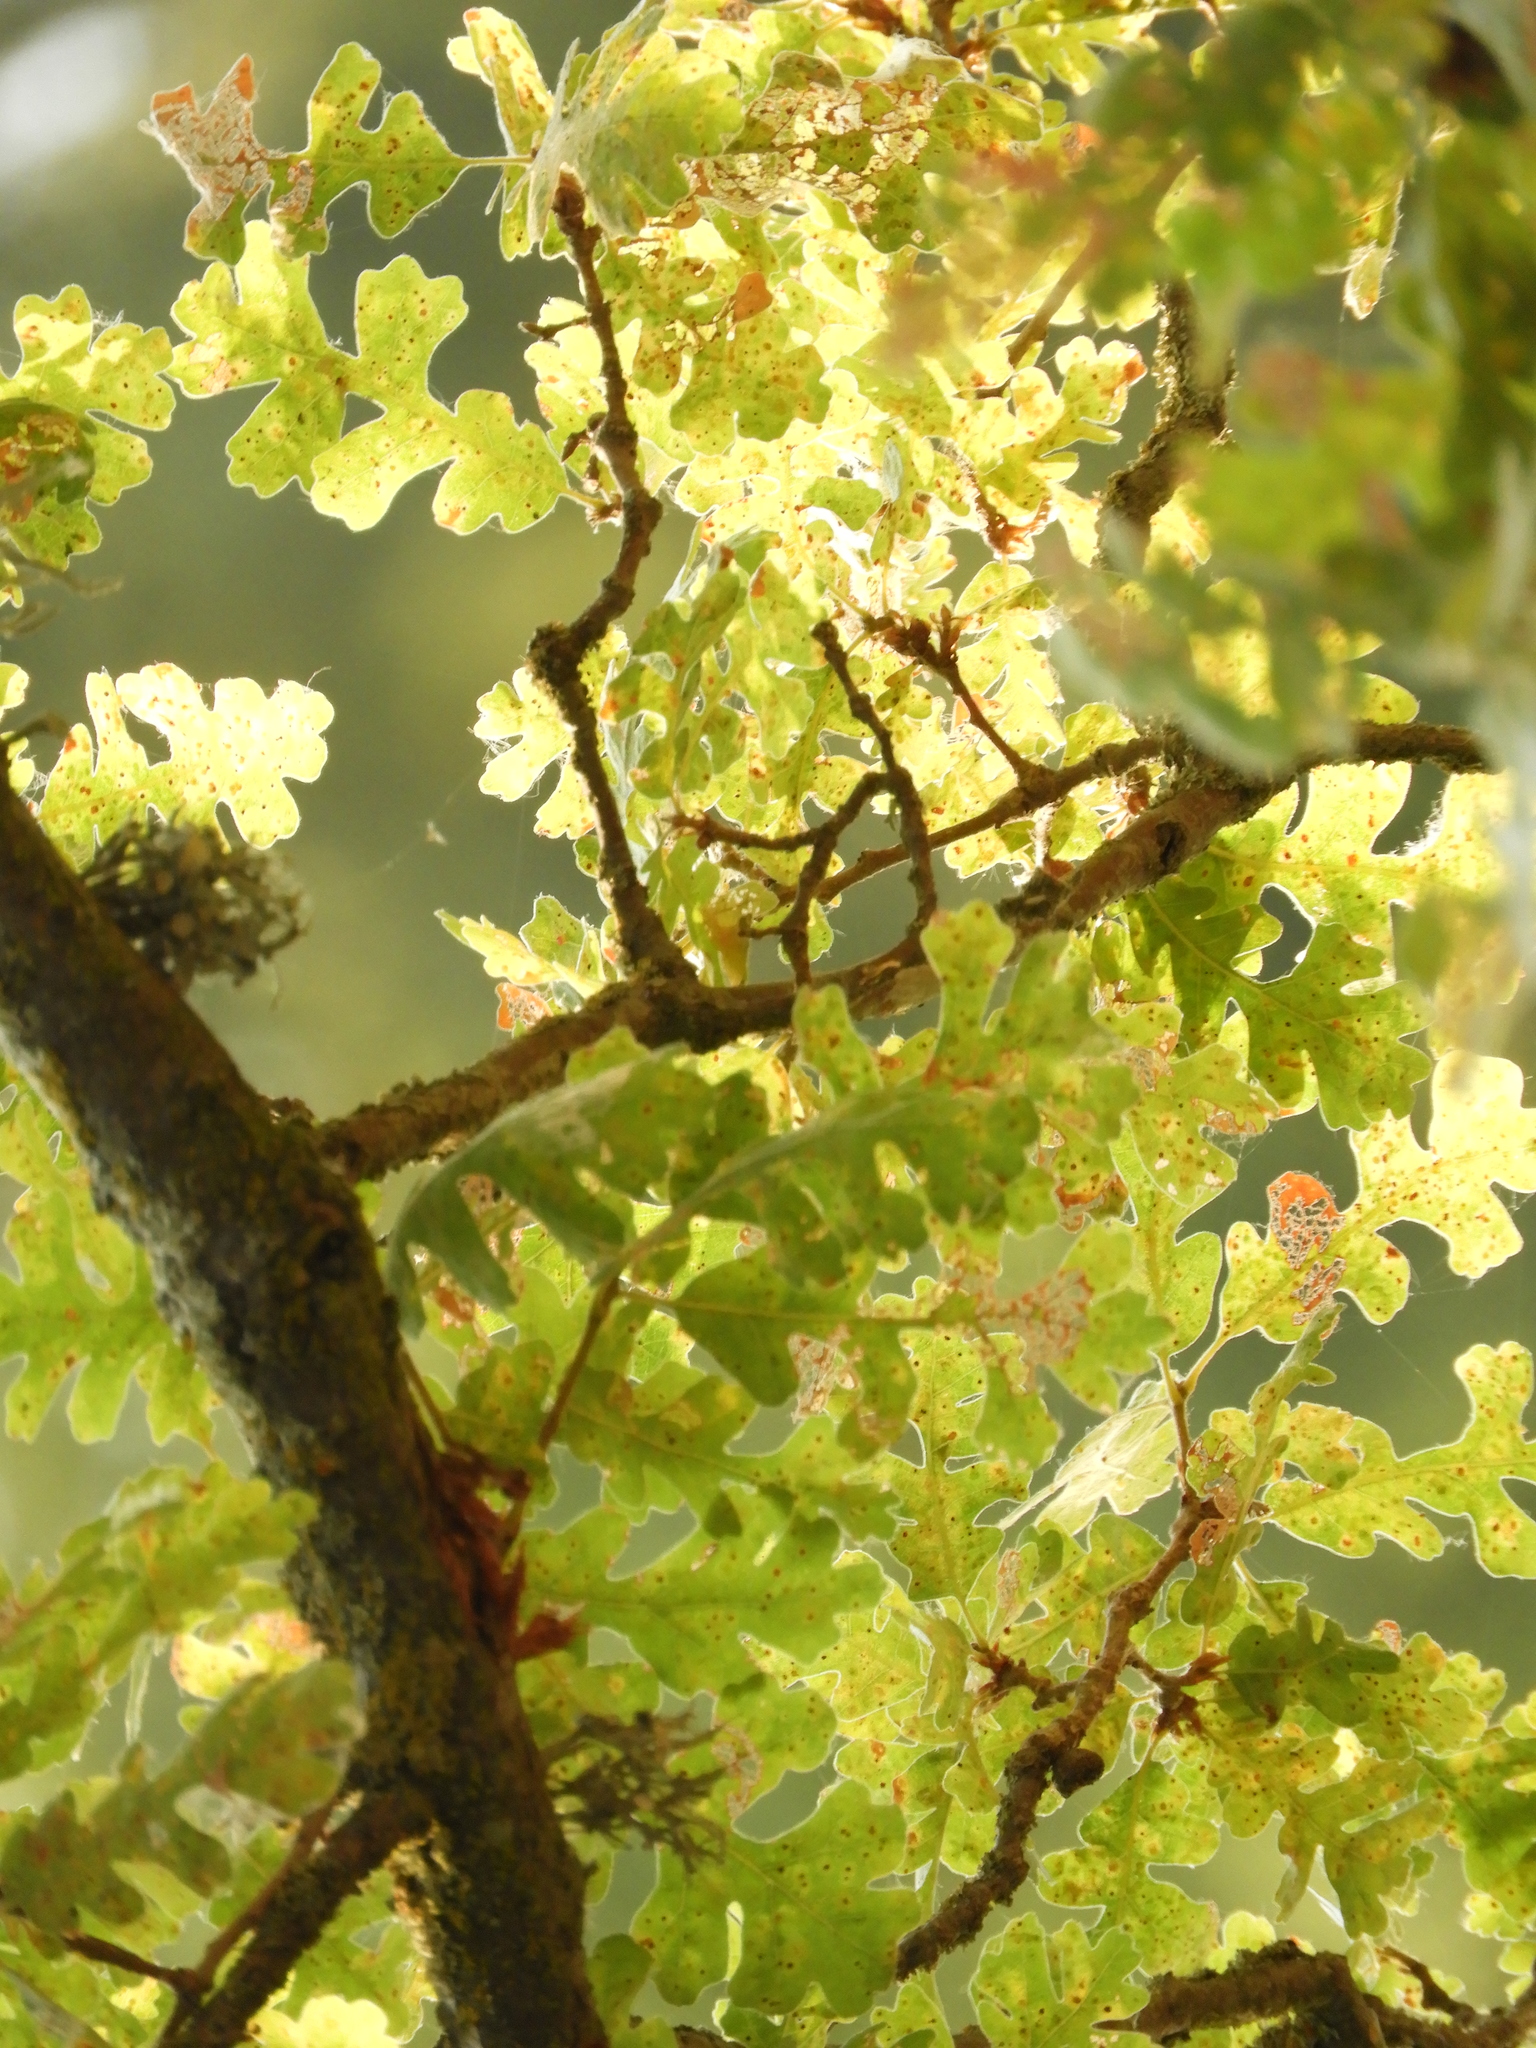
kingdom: Plantae
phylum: Tracheophyta
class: Magnoliopsida
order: Fagales
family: Fagaceae
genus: Quercus
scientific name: Quercus lobata
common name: Valley oak
